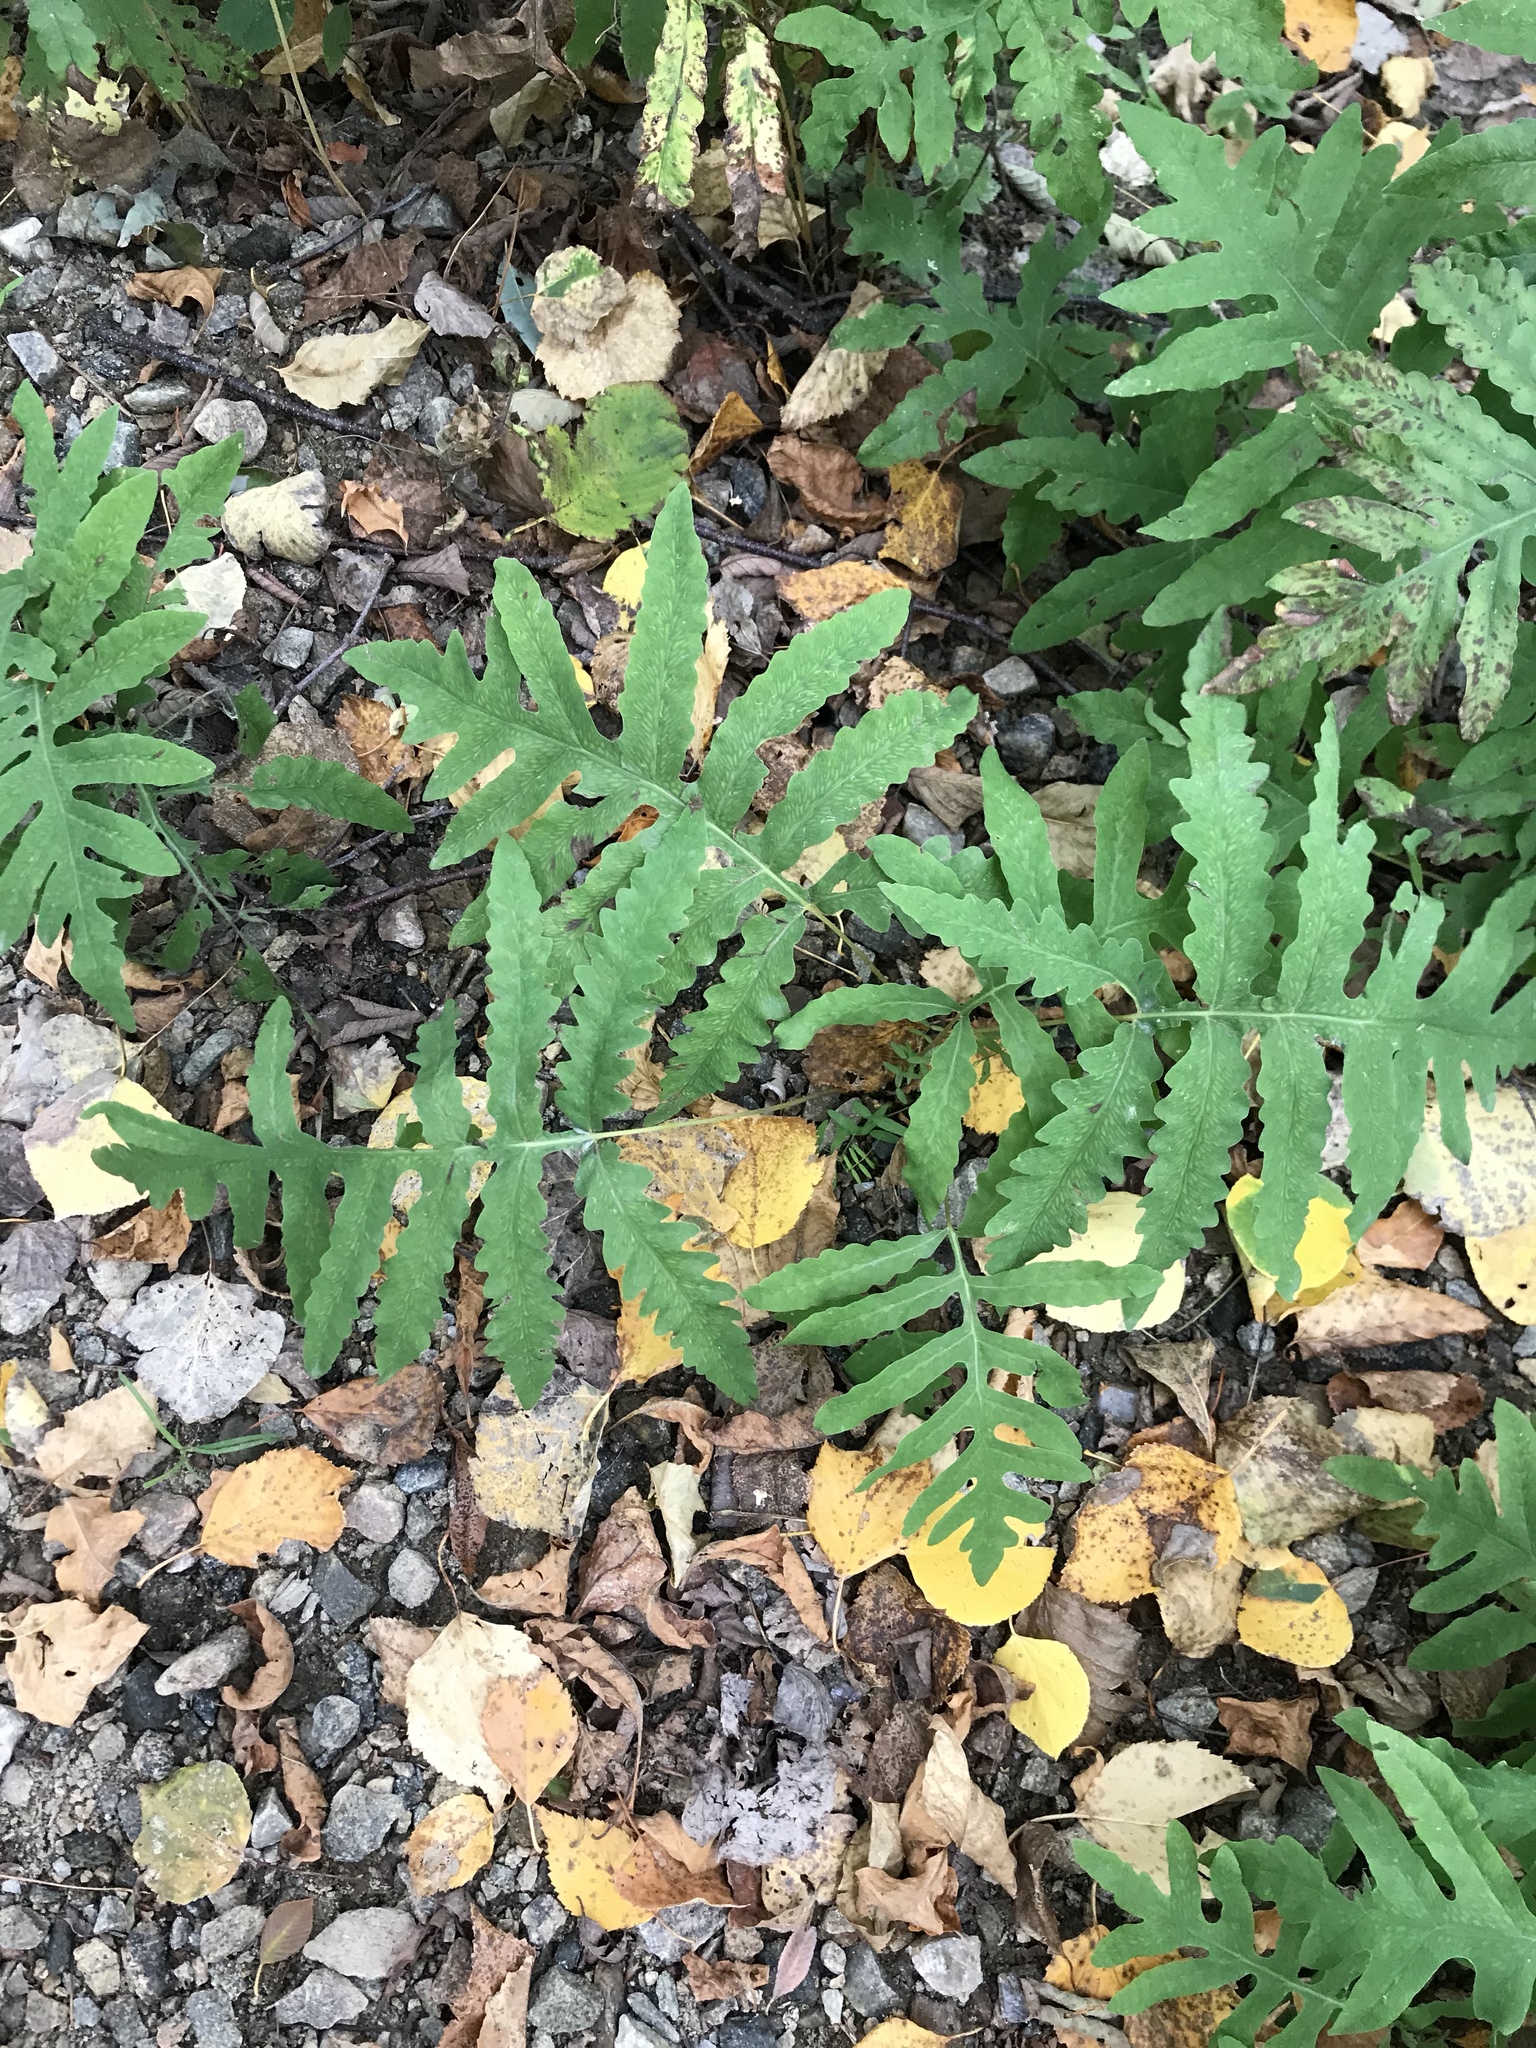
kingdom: Plantae
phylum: Tracheophyta
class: Polypodiopsida
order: Polypodiales
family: Onocleaceae
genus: Onoclea
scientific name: Onoclea sensibilis
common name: Sensitive fern
